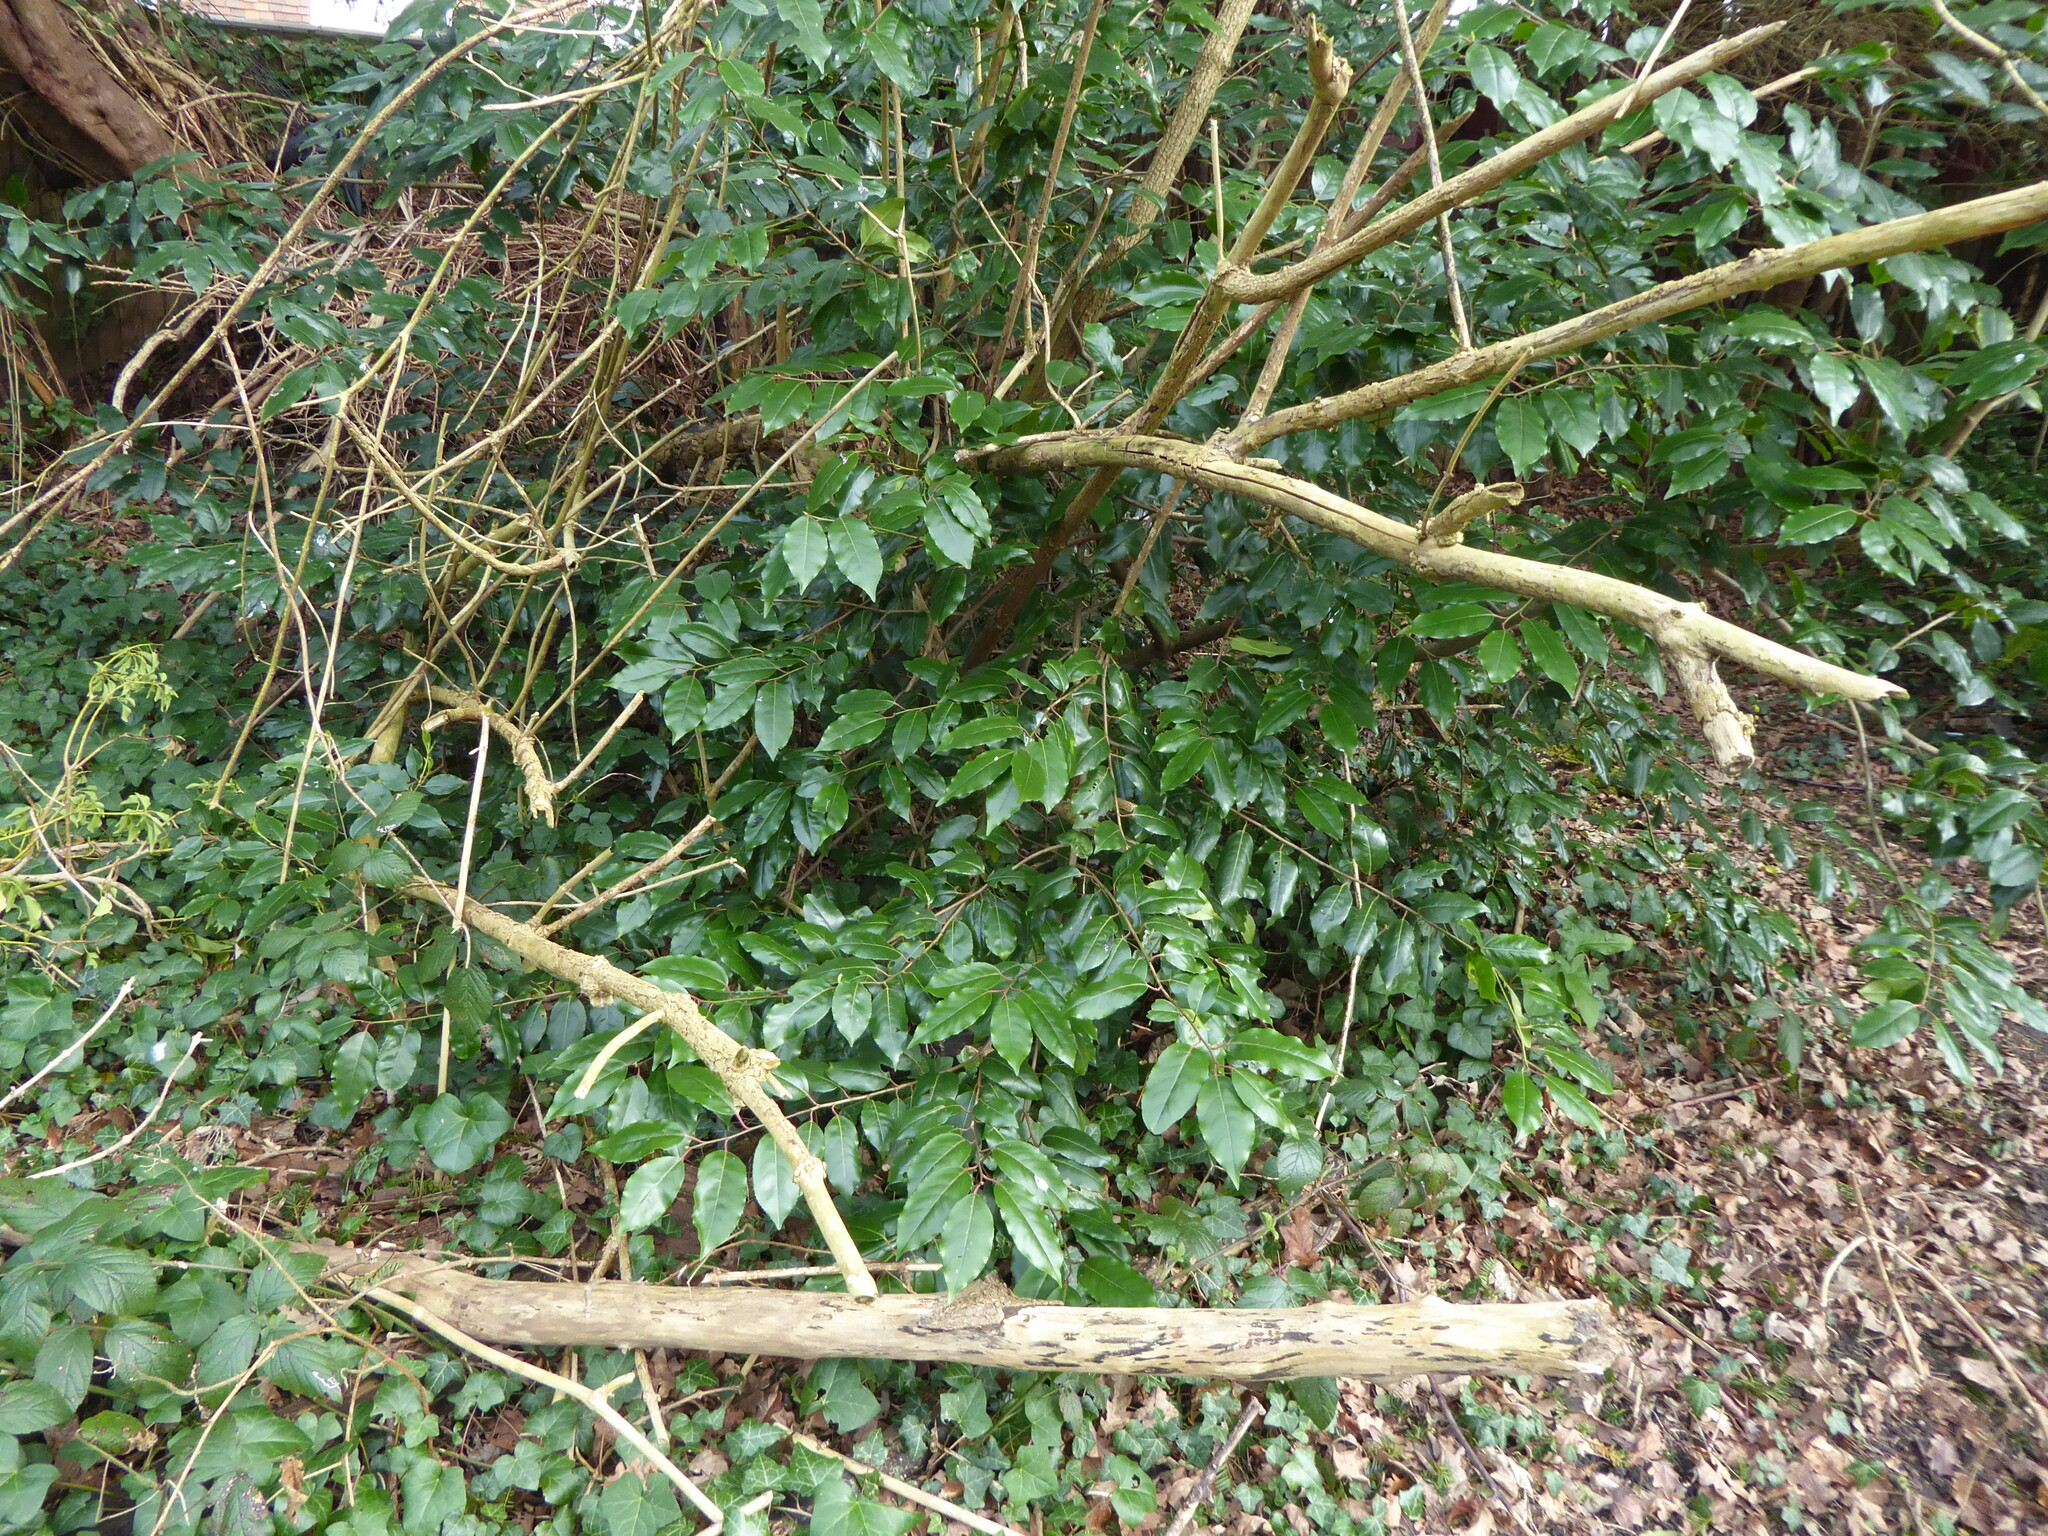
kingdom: Plantae
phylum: Tracheophyta
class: Magnoliopsida
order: Rosales
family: Rosaceae
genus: Prunus
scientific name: Prunus lusitanica
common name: Portugal laurel
